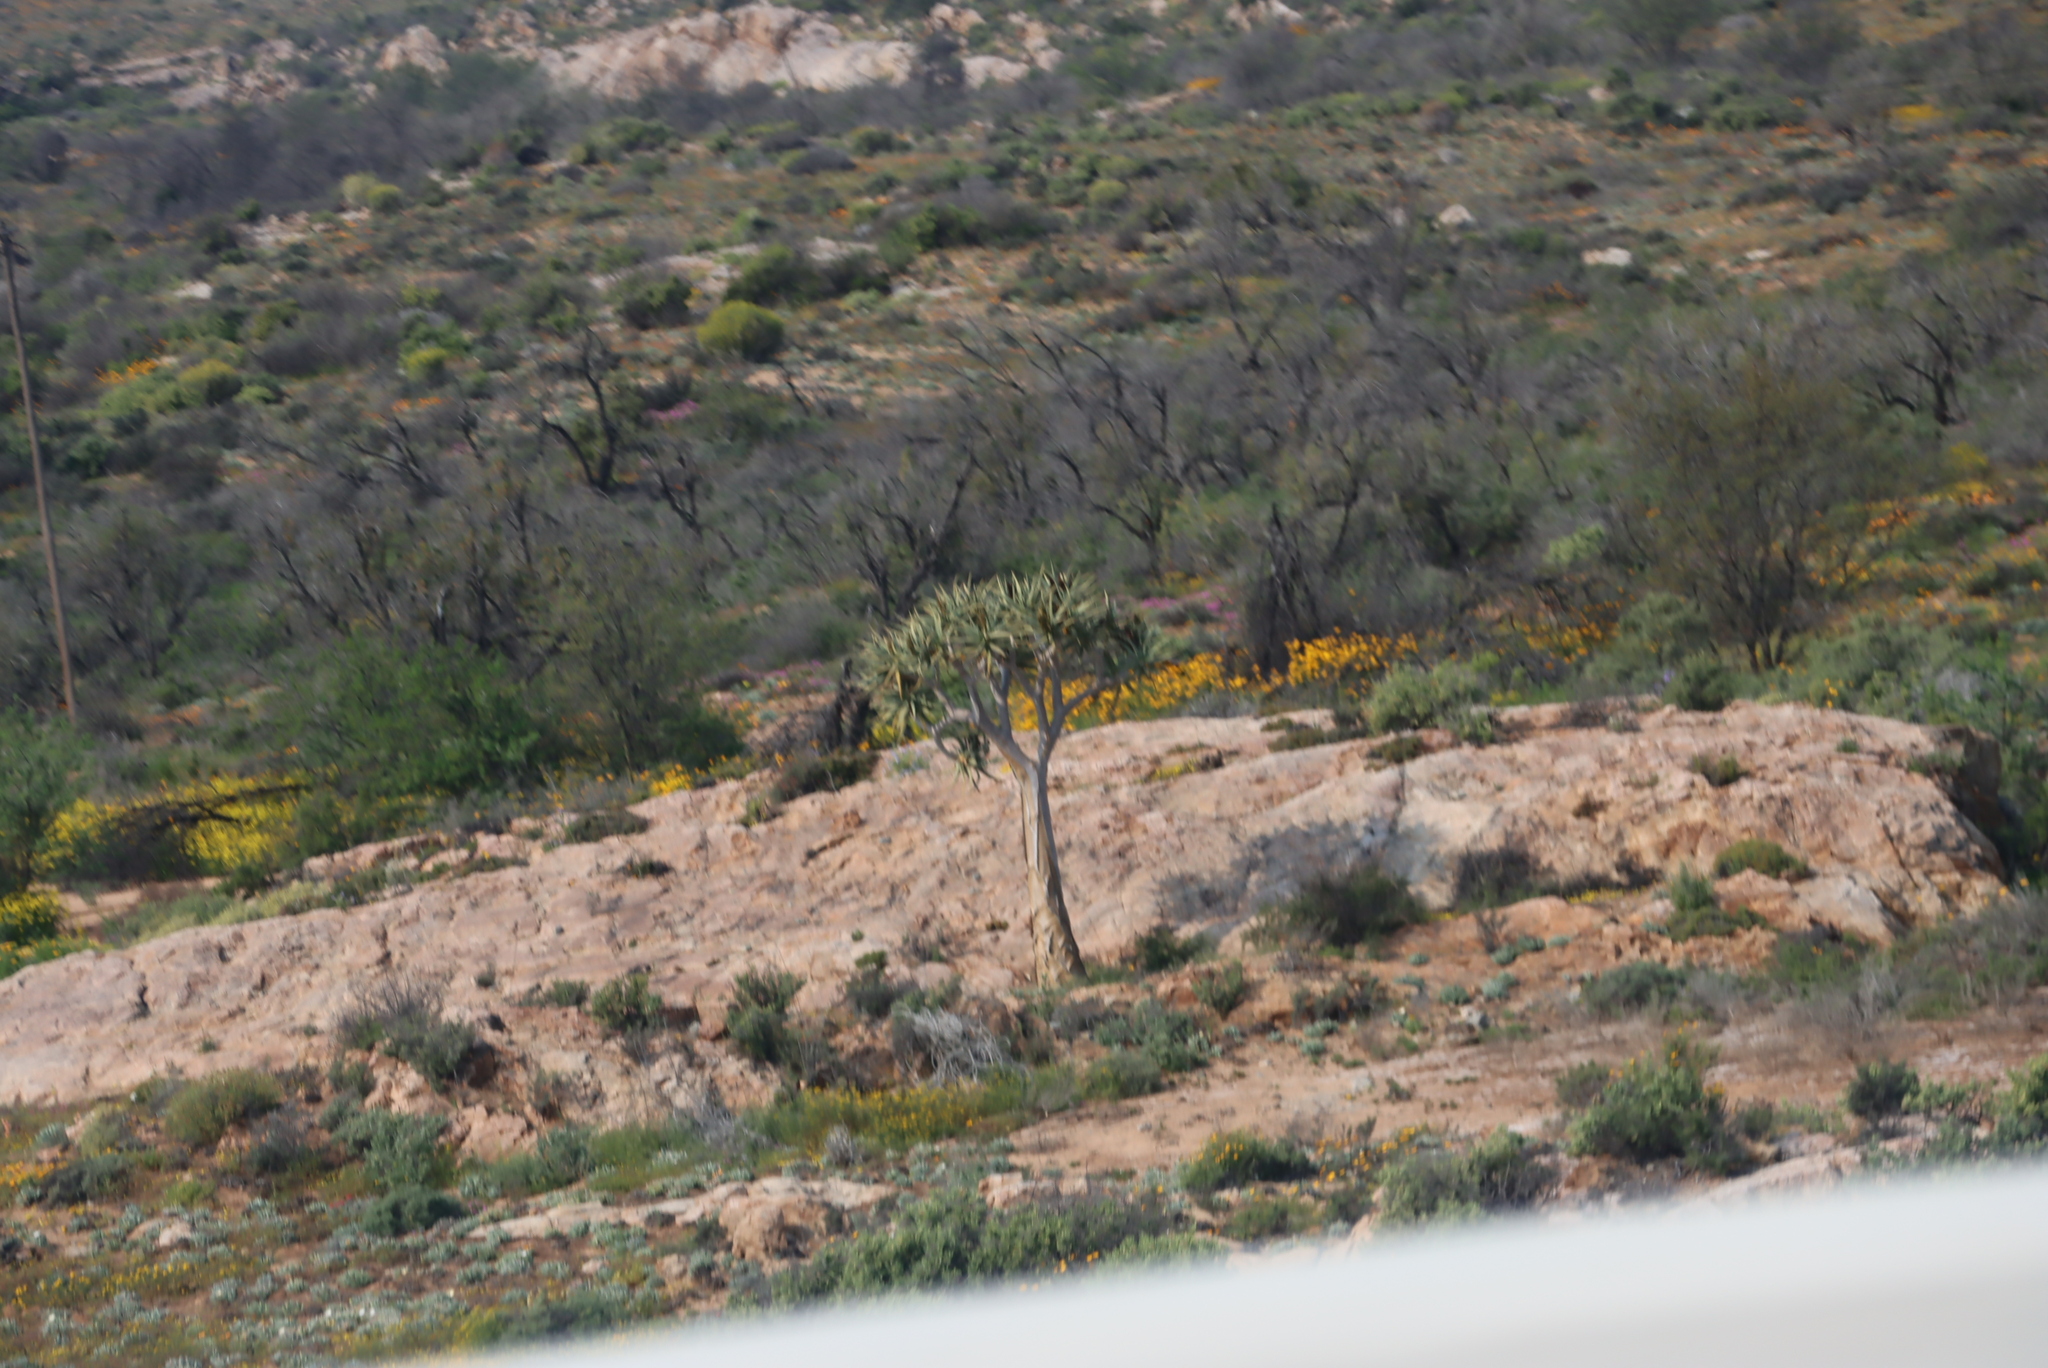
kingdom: Plantae
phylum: Tracheophyta
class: Liliopsida
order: Asparagales
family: Asphodelaceae
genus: Aloidendron
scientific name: Aloidendron dichotomum
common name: Quiver tree
